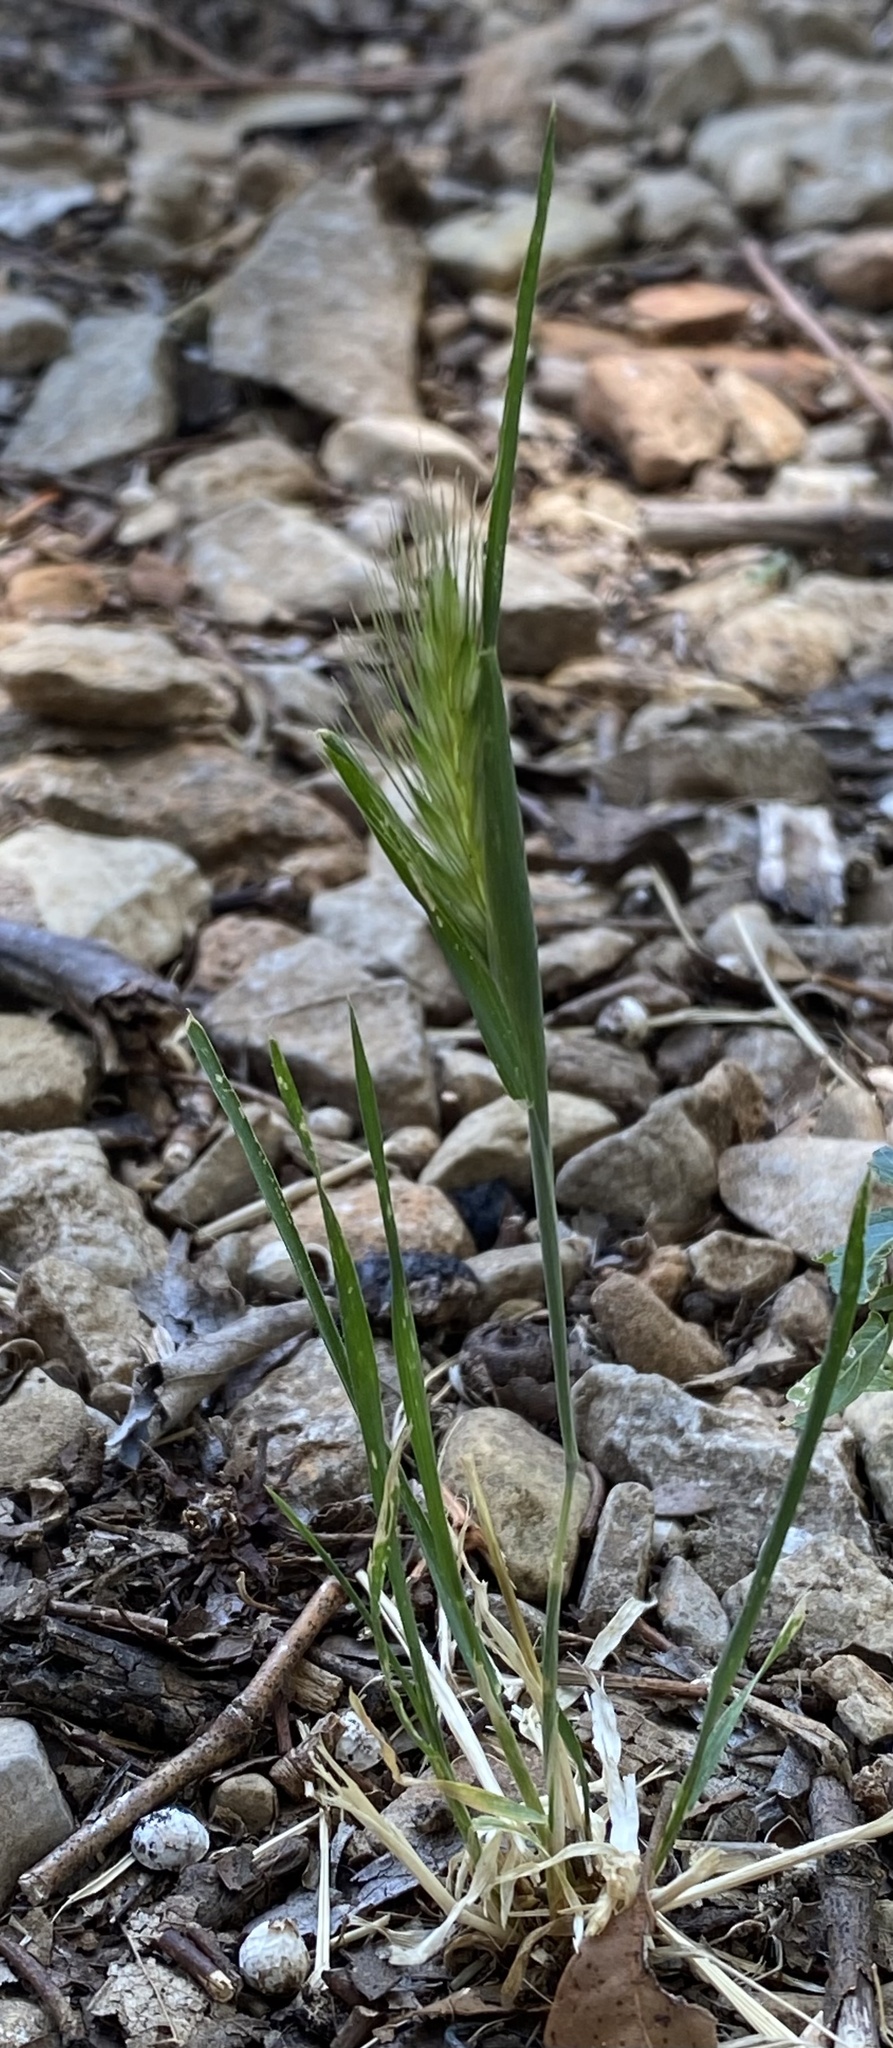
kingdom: Plantae
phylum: Tracheophyta
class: Liliopsida
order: Poales
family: Poaceae
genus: Hordeum
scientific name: Hordeum murinum
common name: Wall barley
